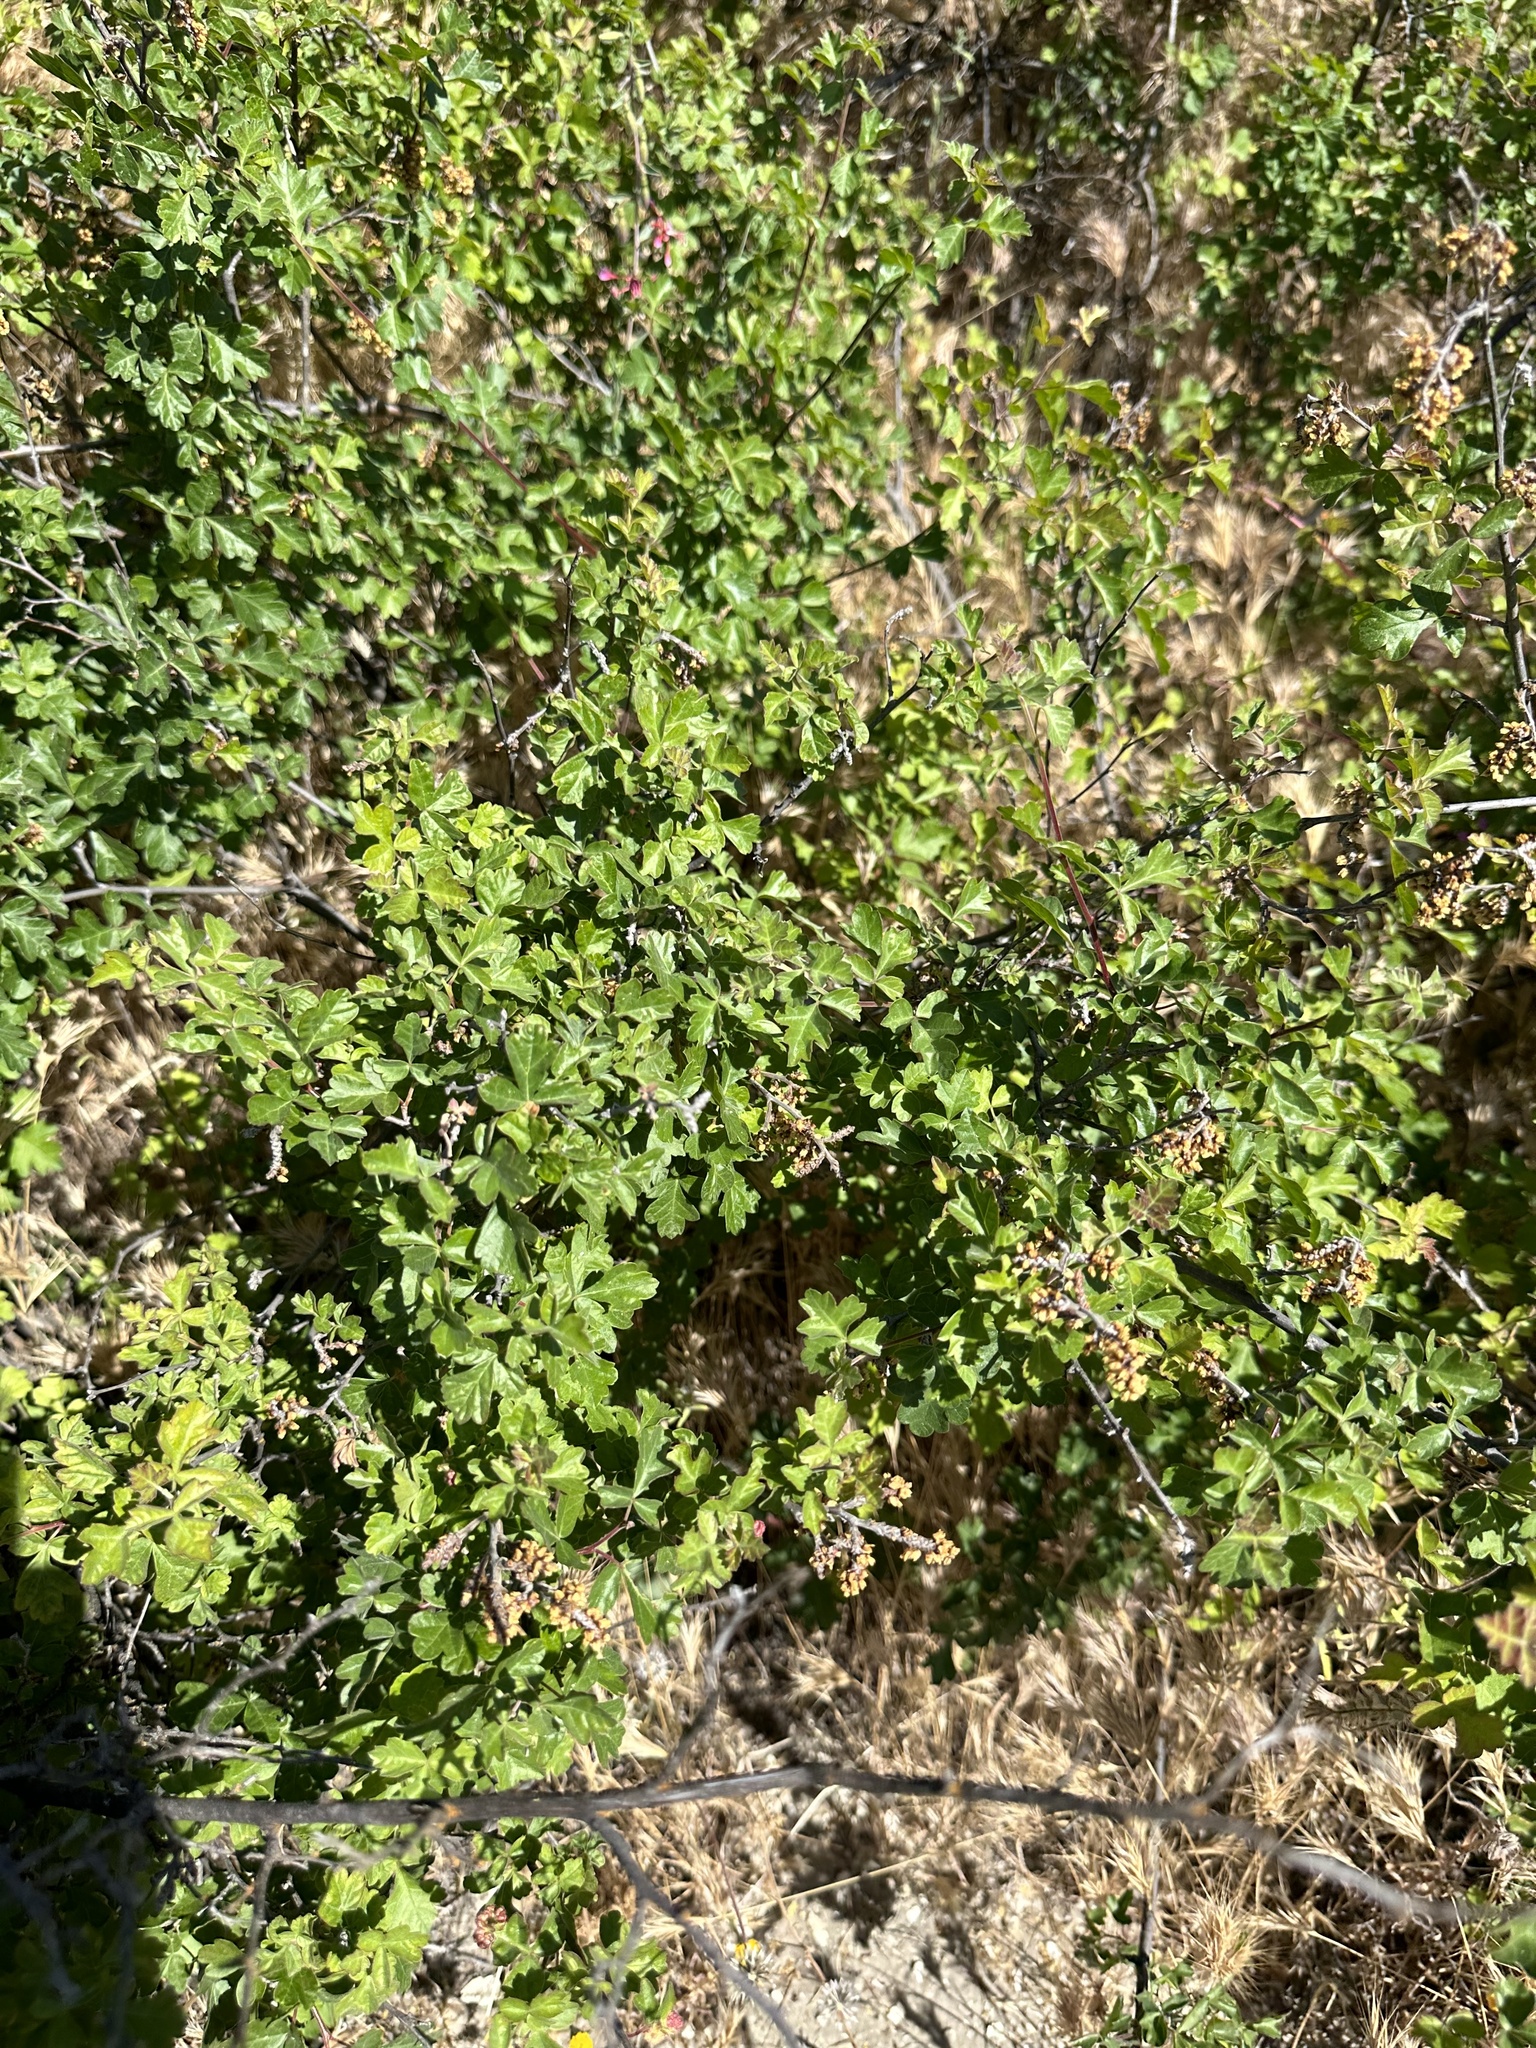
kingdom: Plantae
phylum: Tracheophyta
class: Magnoliopsida
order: Sapindales
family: Anacardiaceae
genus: Rhus
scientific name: Rhus aromatica
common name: Aromatic sumac
